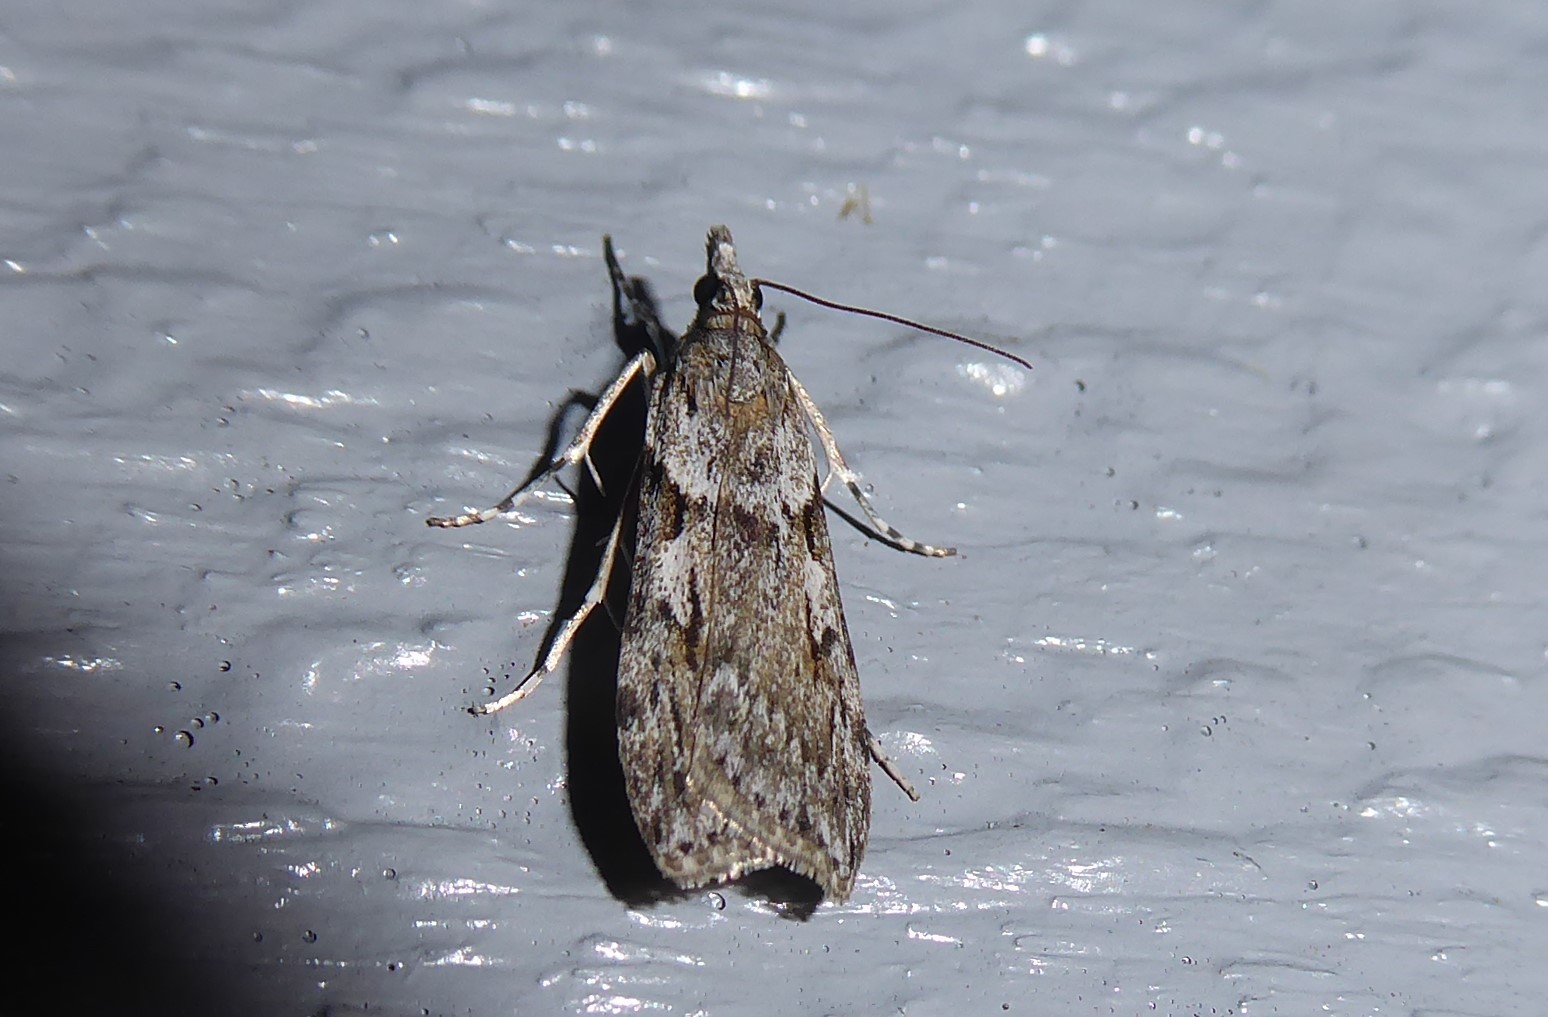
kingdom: Animalia
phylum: Arthropoda
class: Insecta
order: Lepidoptera
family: Crambidae
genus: Scoparia
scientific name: Scoparia halopis
